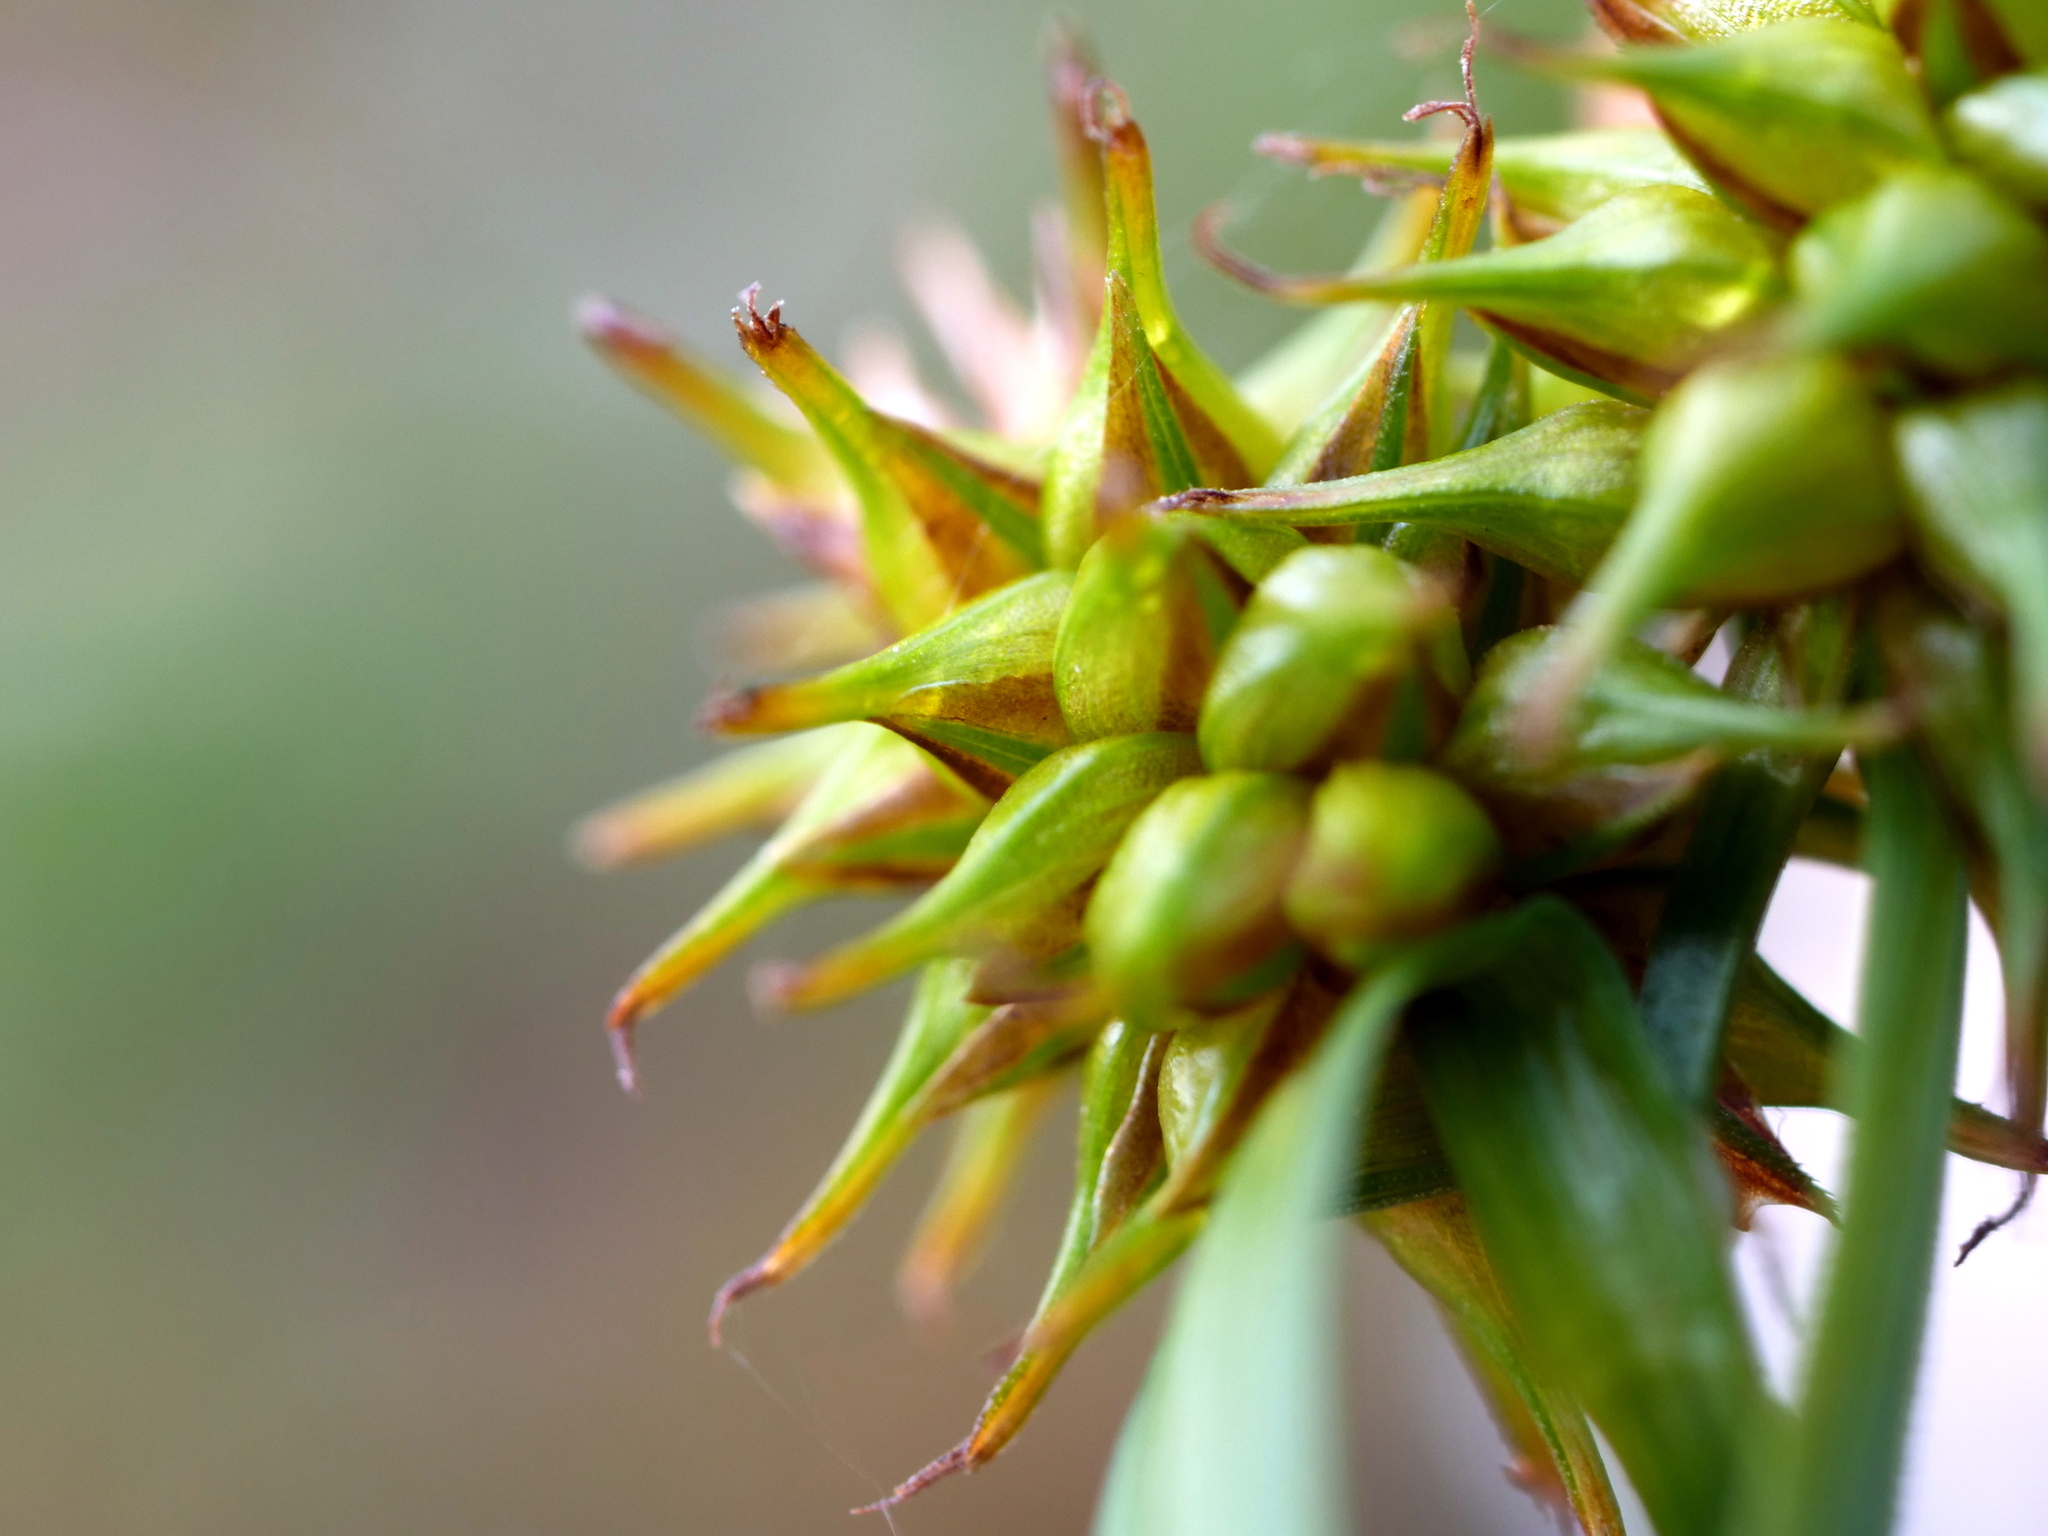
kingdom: Plantae
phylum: Tracheophyta
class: Liliopsida
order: Poales
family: Cyperaceae
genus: Carex
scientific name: Carex flava
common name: Large yellow-sedge
